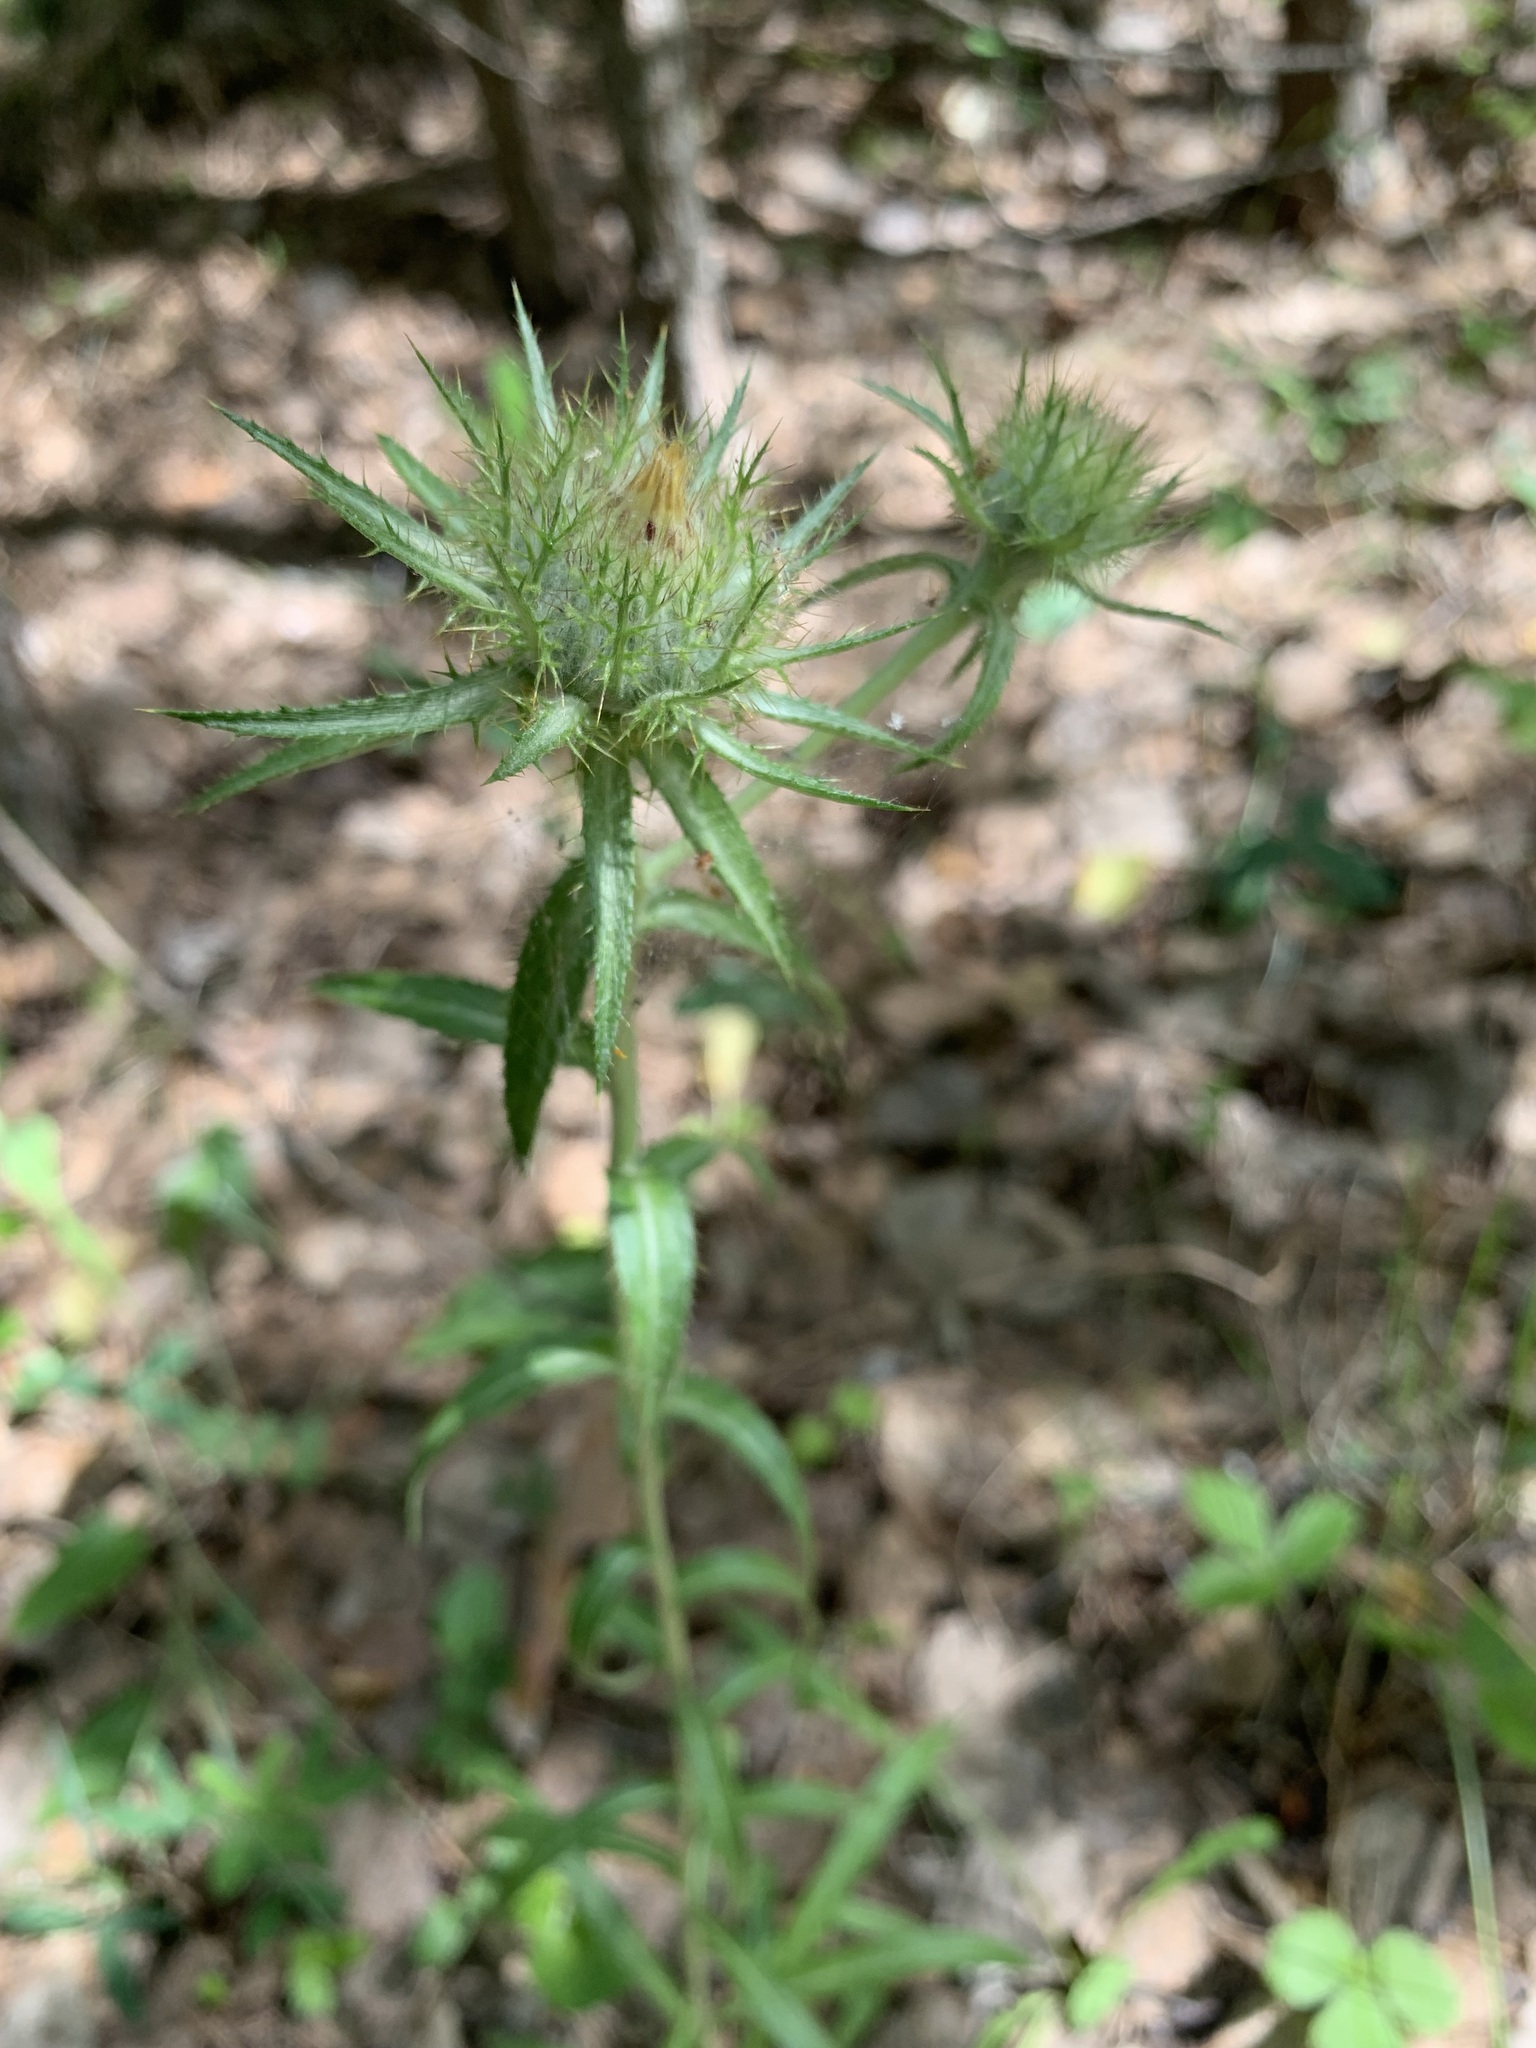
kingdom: Plantae
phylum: Tracheophyta
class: Magnoliopsida
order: Asterales
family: Asteraceae
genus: Carlina
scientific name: Carlina biebersteinii
